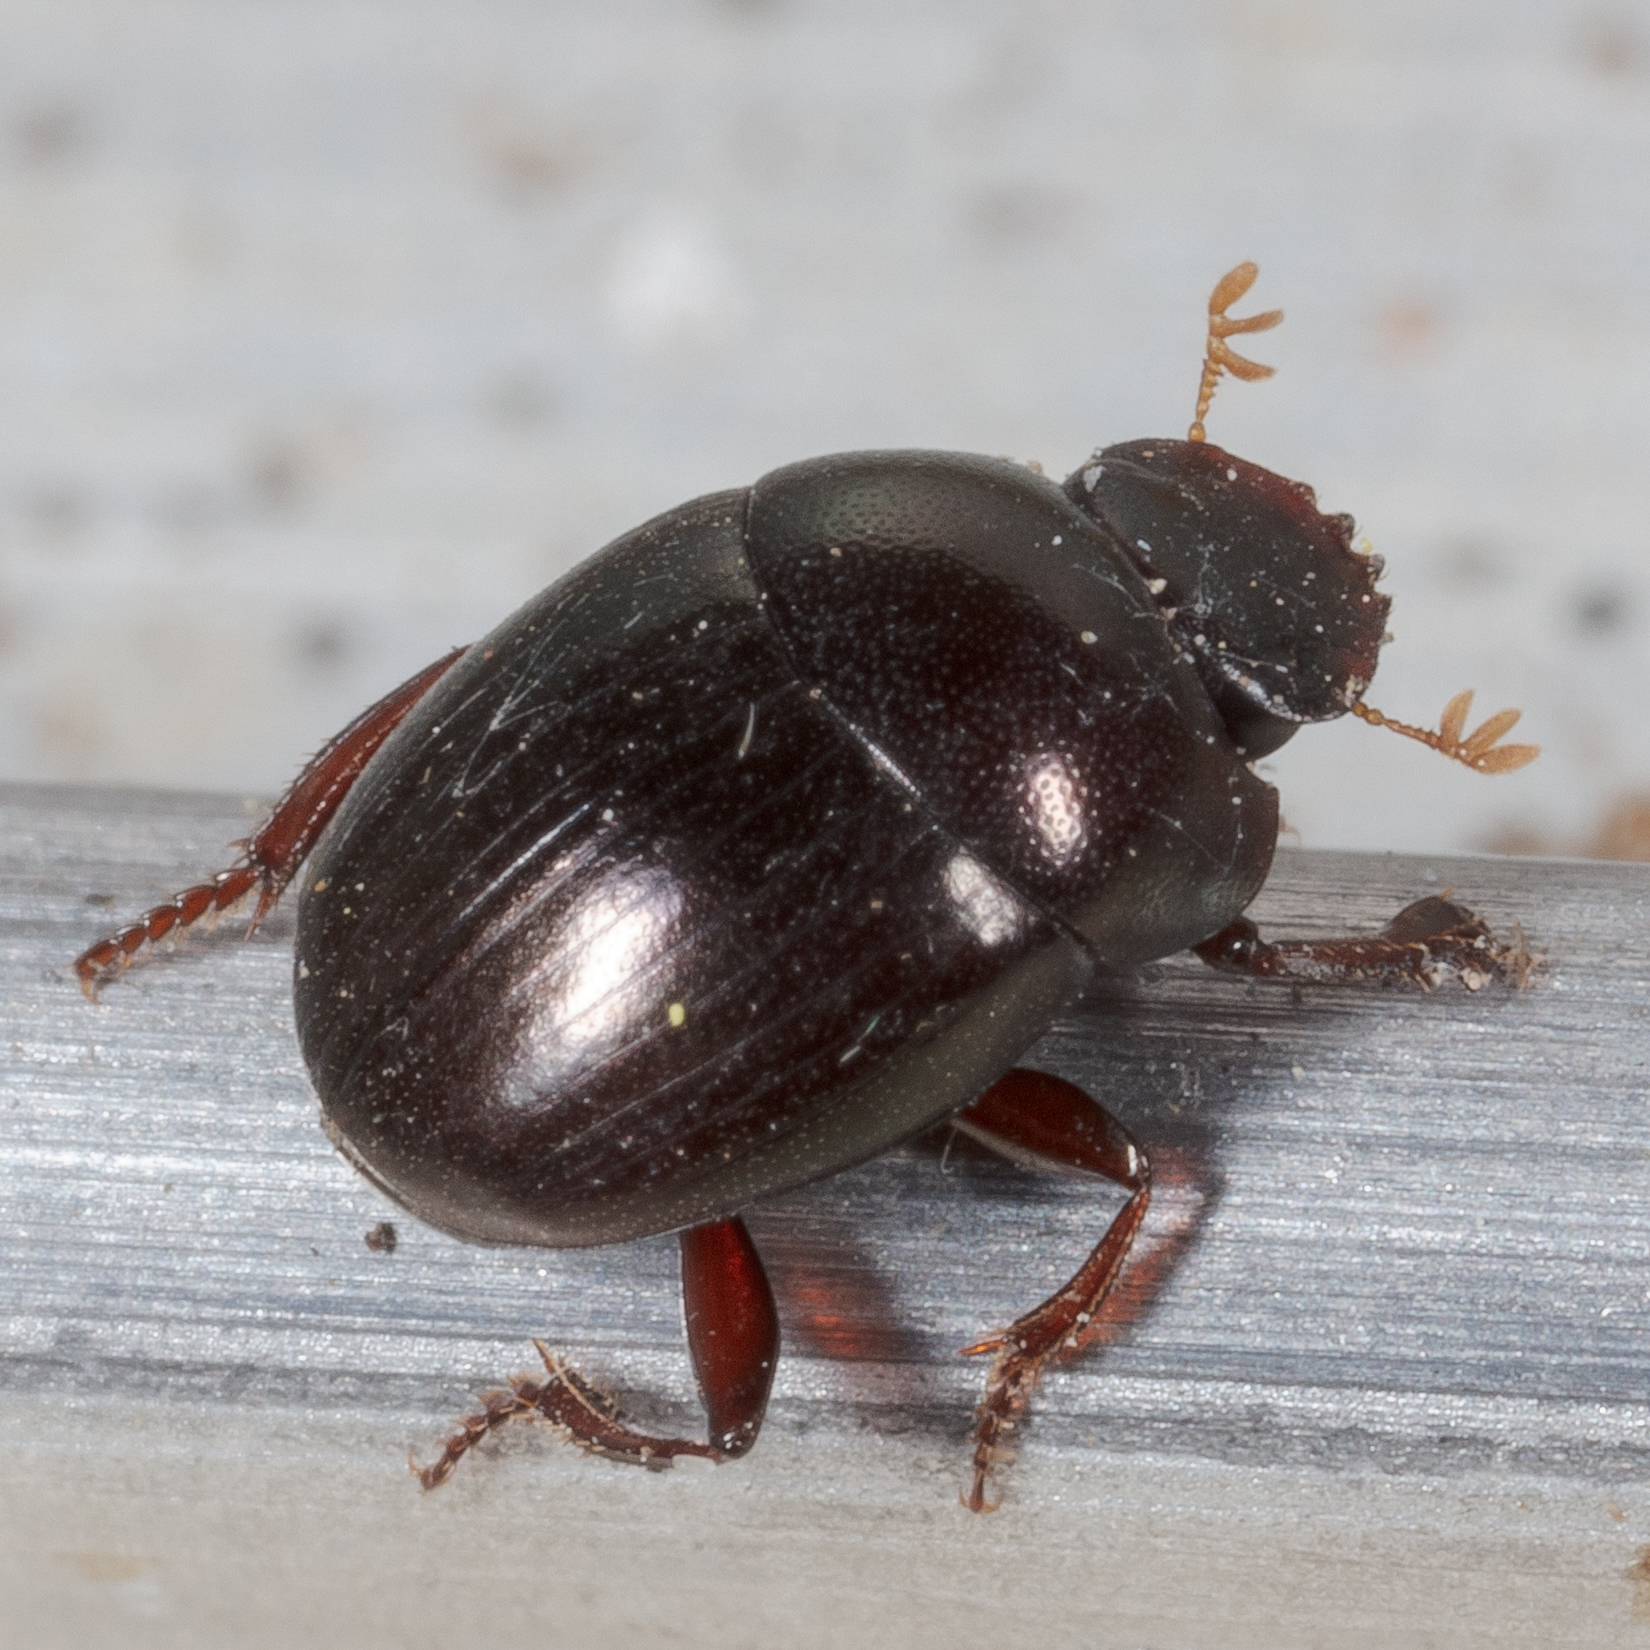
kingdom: Animalia
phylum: Arthropoda
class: Insecta
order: Coleoptera
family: Scarabaeidae
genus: Pseudocanthon
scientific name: Pseudocanthon perplexus
